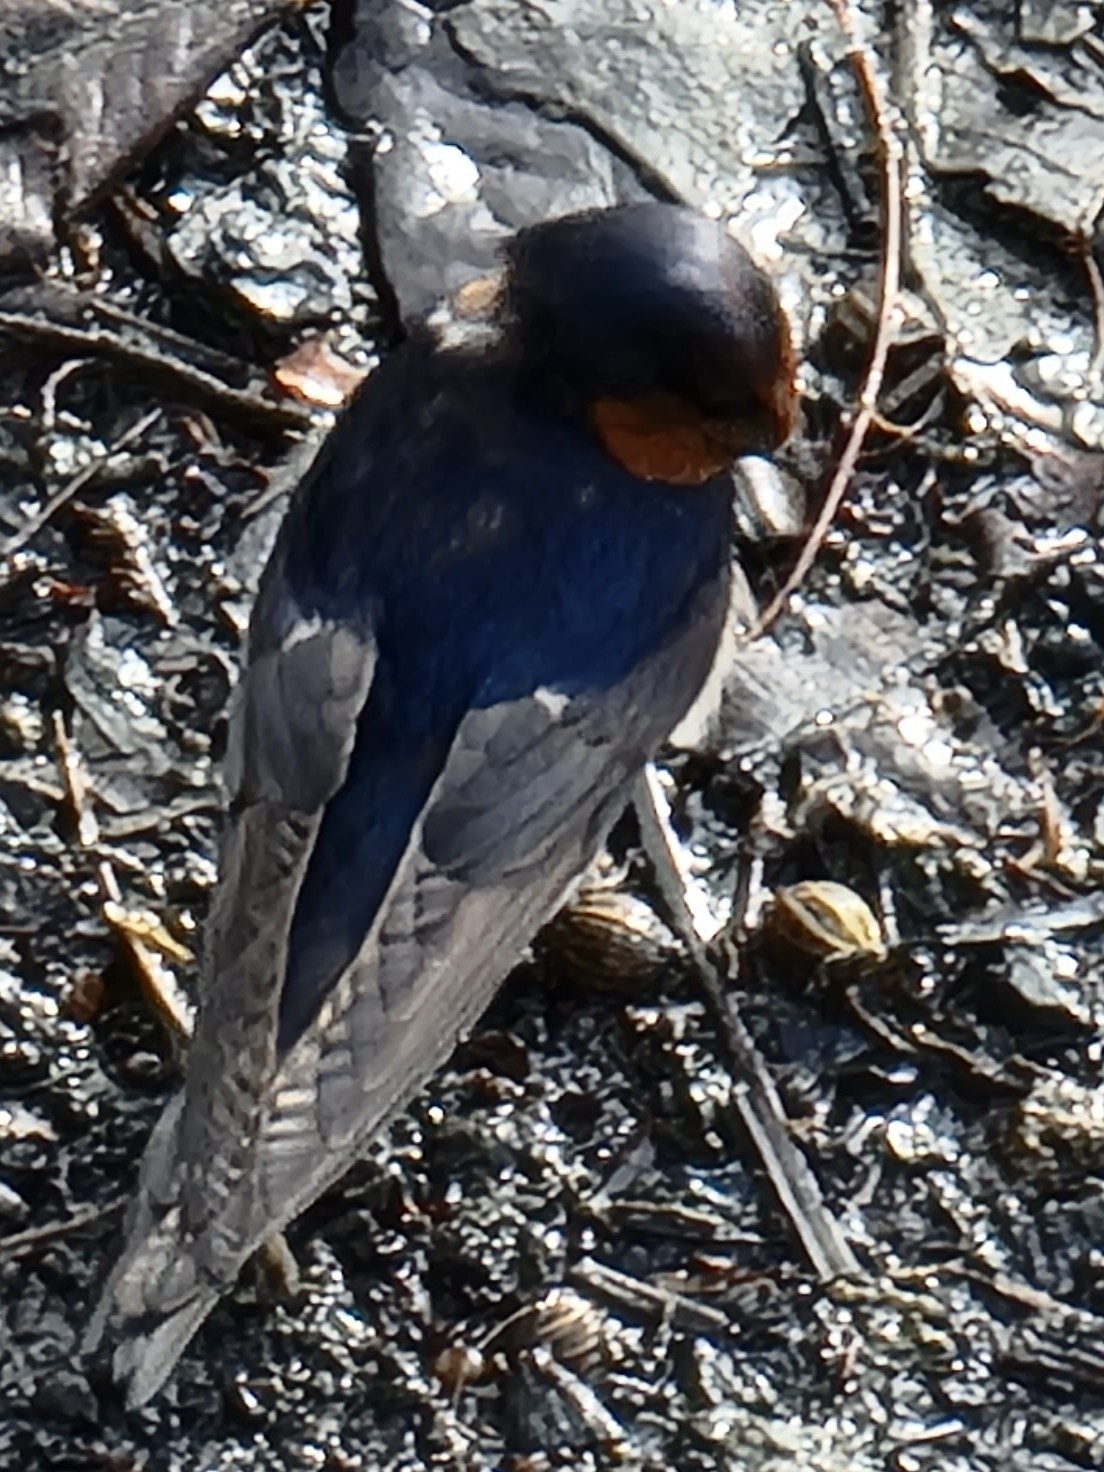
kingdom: Animalia
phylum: Chordata
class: Aves
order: Passeriformes
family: Hirundinidae
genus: Hirundo
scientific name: Hirundo neoxena
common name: Welcome swallow
